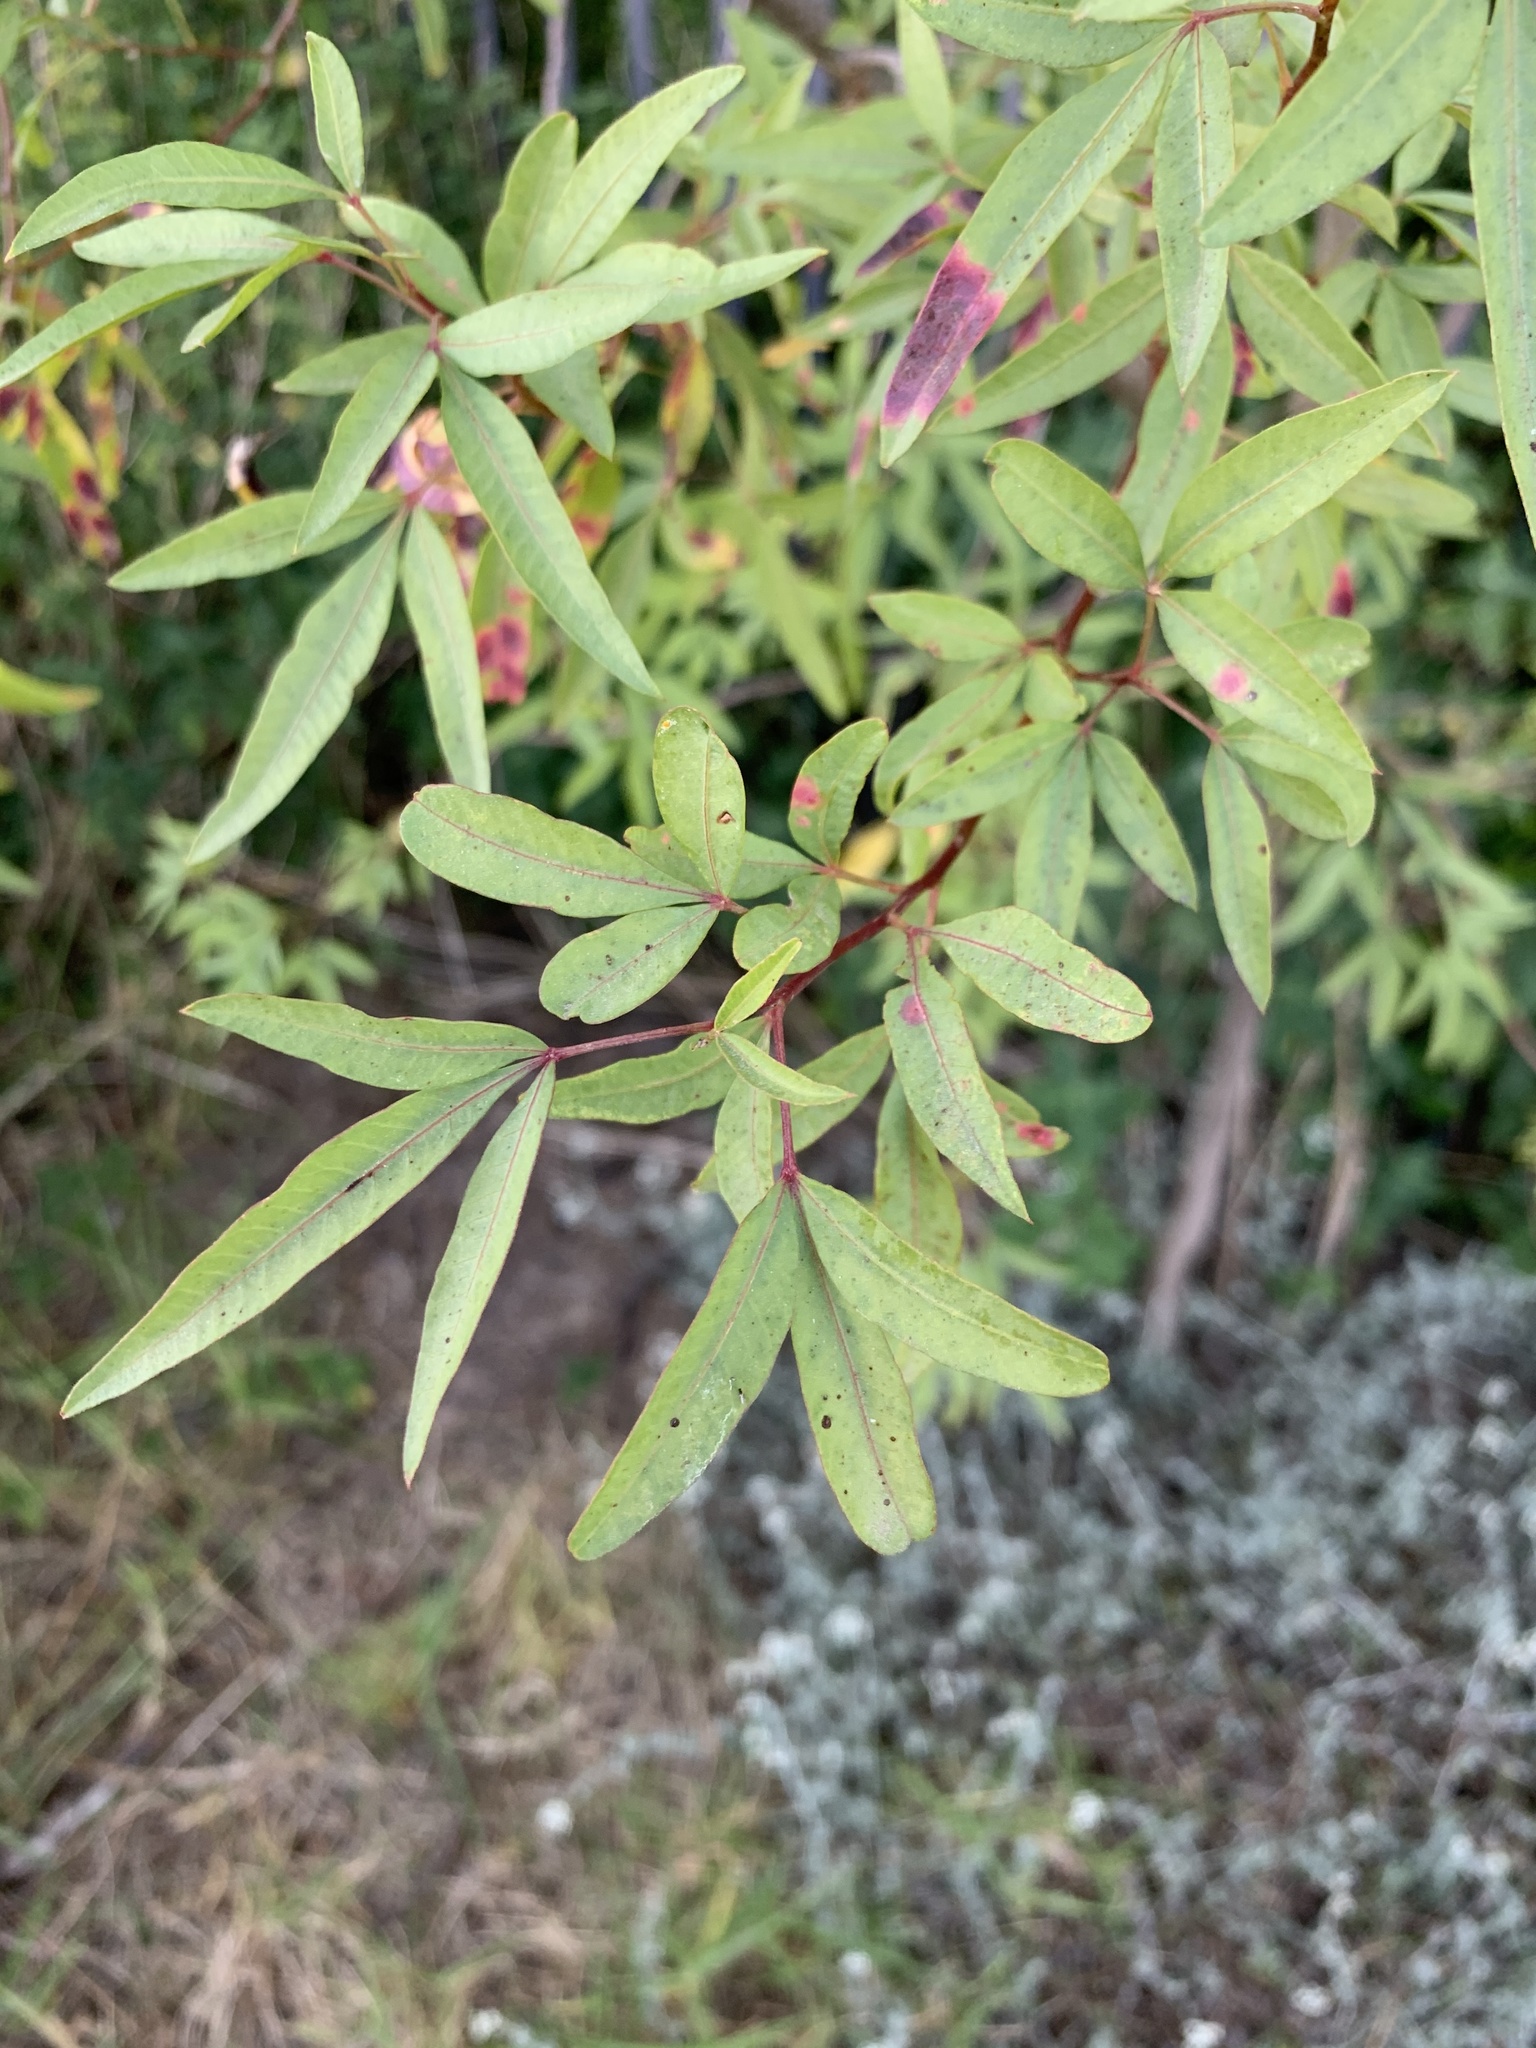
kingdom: Plantae
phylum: Tracheophyta
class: Magnoliopsida
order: Sapindales
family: Anacardiaceae
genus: Searsia
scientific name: Searsia pendulina
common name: White karee
